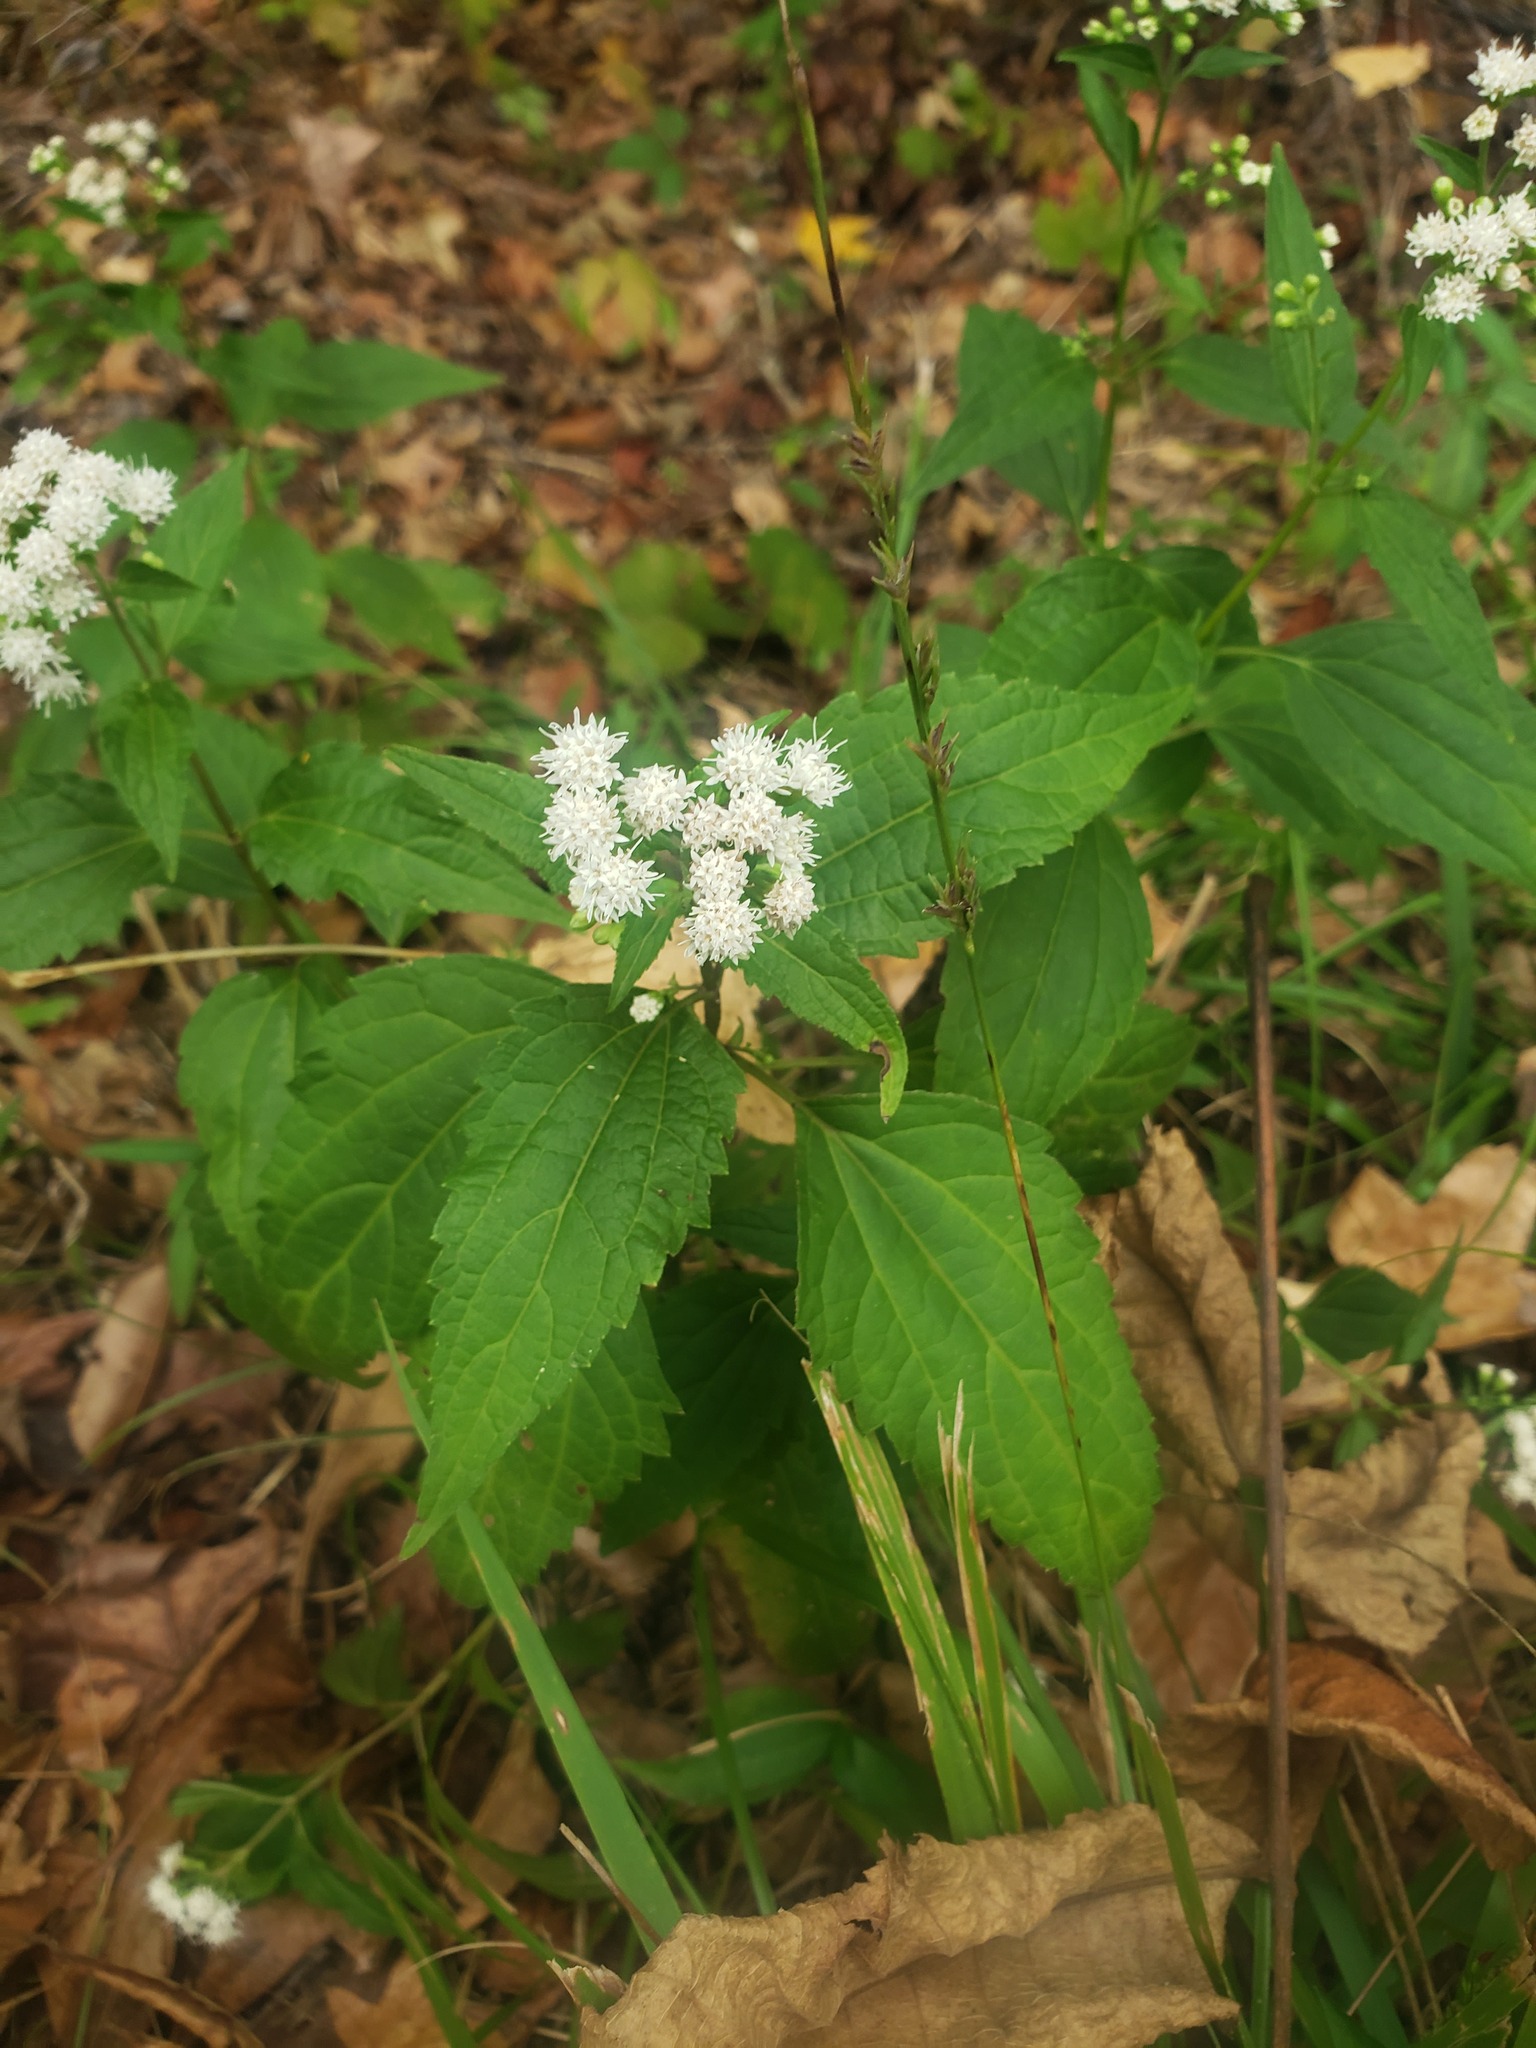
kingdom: Plantae
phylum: Tracheophyta
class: Magnoliopsida
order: Asterales
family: Asteraceae
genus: Ageratina
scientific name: Ageratina altissima
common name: White snakeroot
